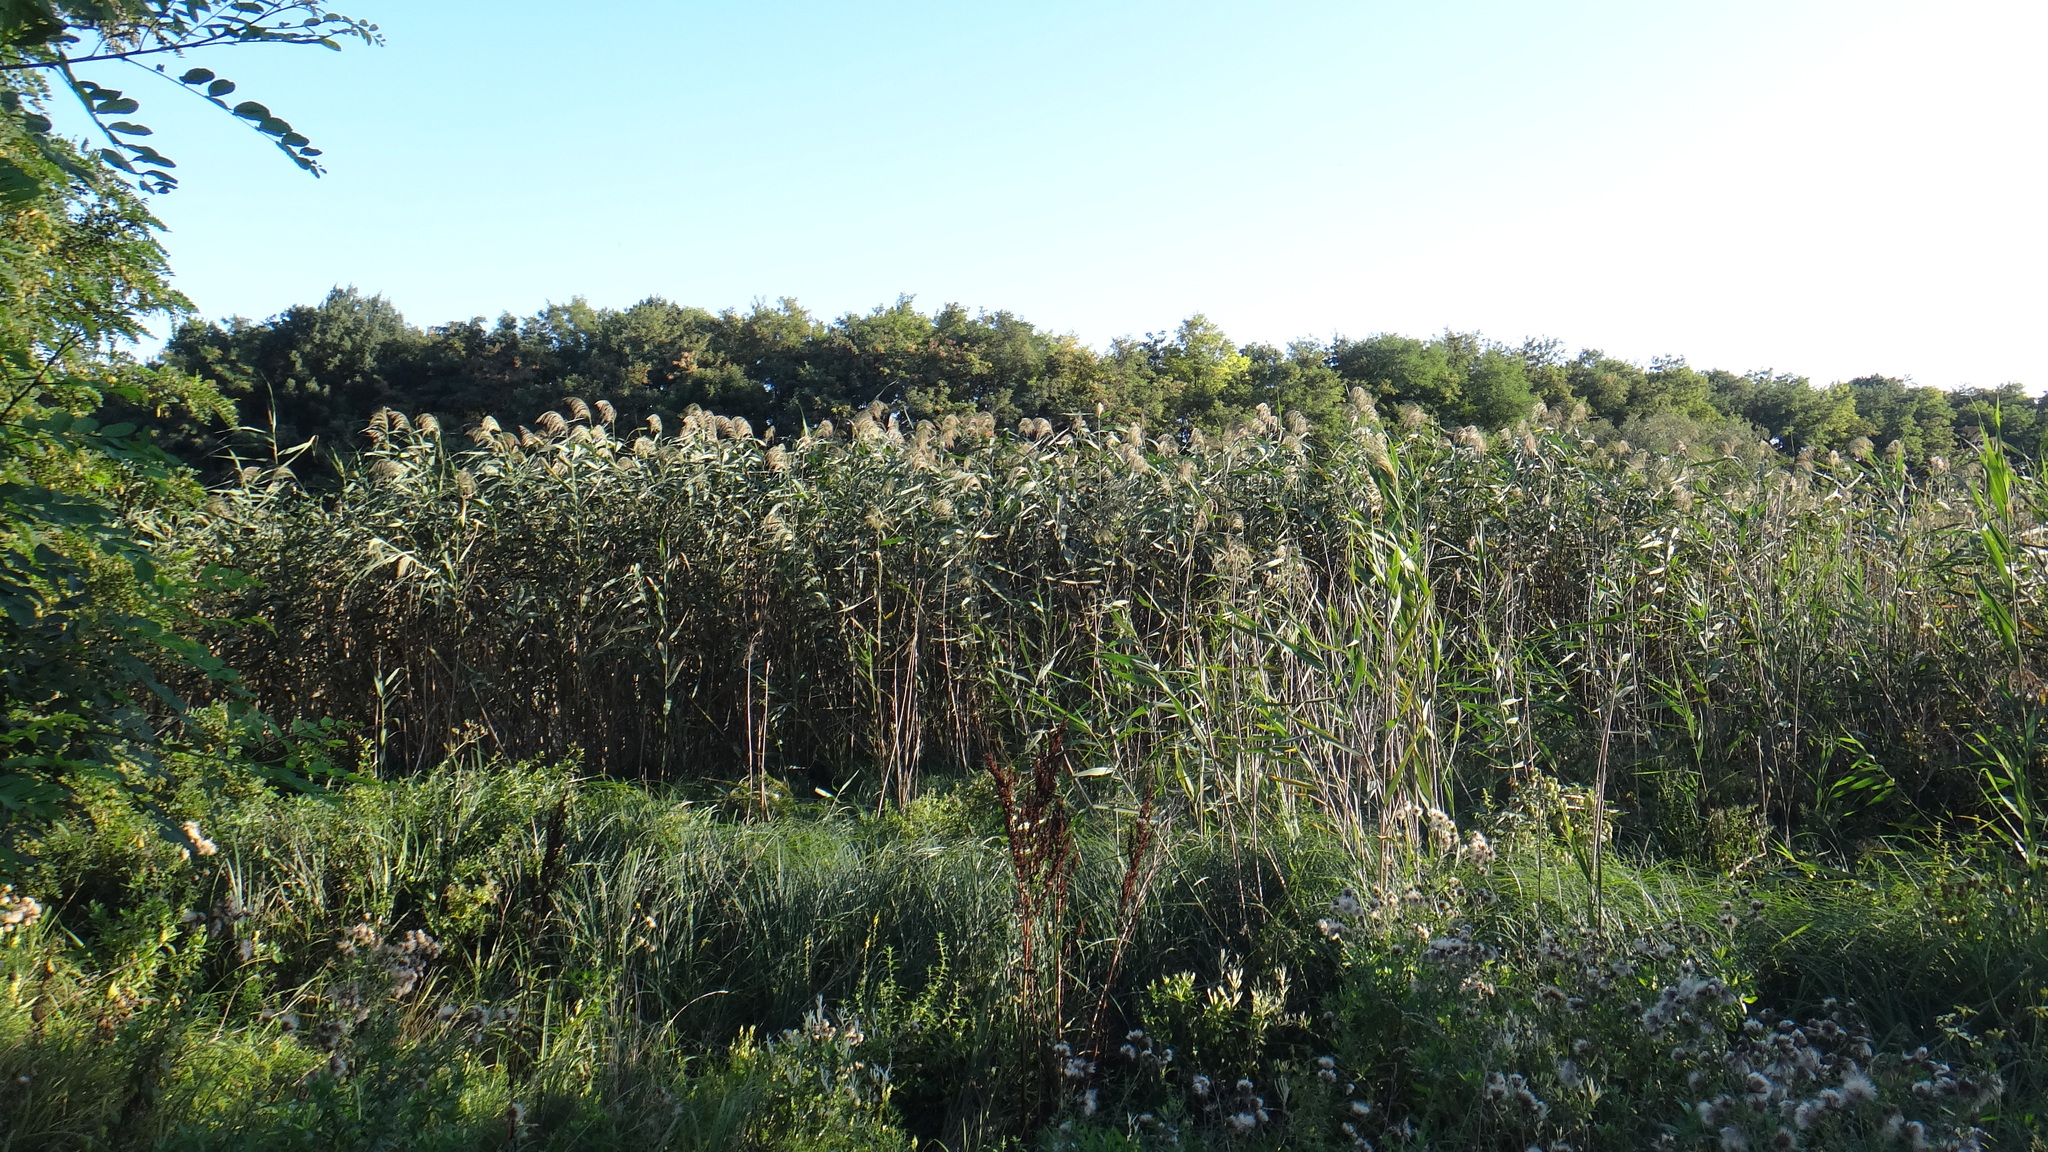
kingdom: Plantae
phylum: Tracheophyta
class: Liliopsida
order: Poales
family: Poaceae
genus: Phragmites
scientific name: Phragmites australis
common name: Common reed
